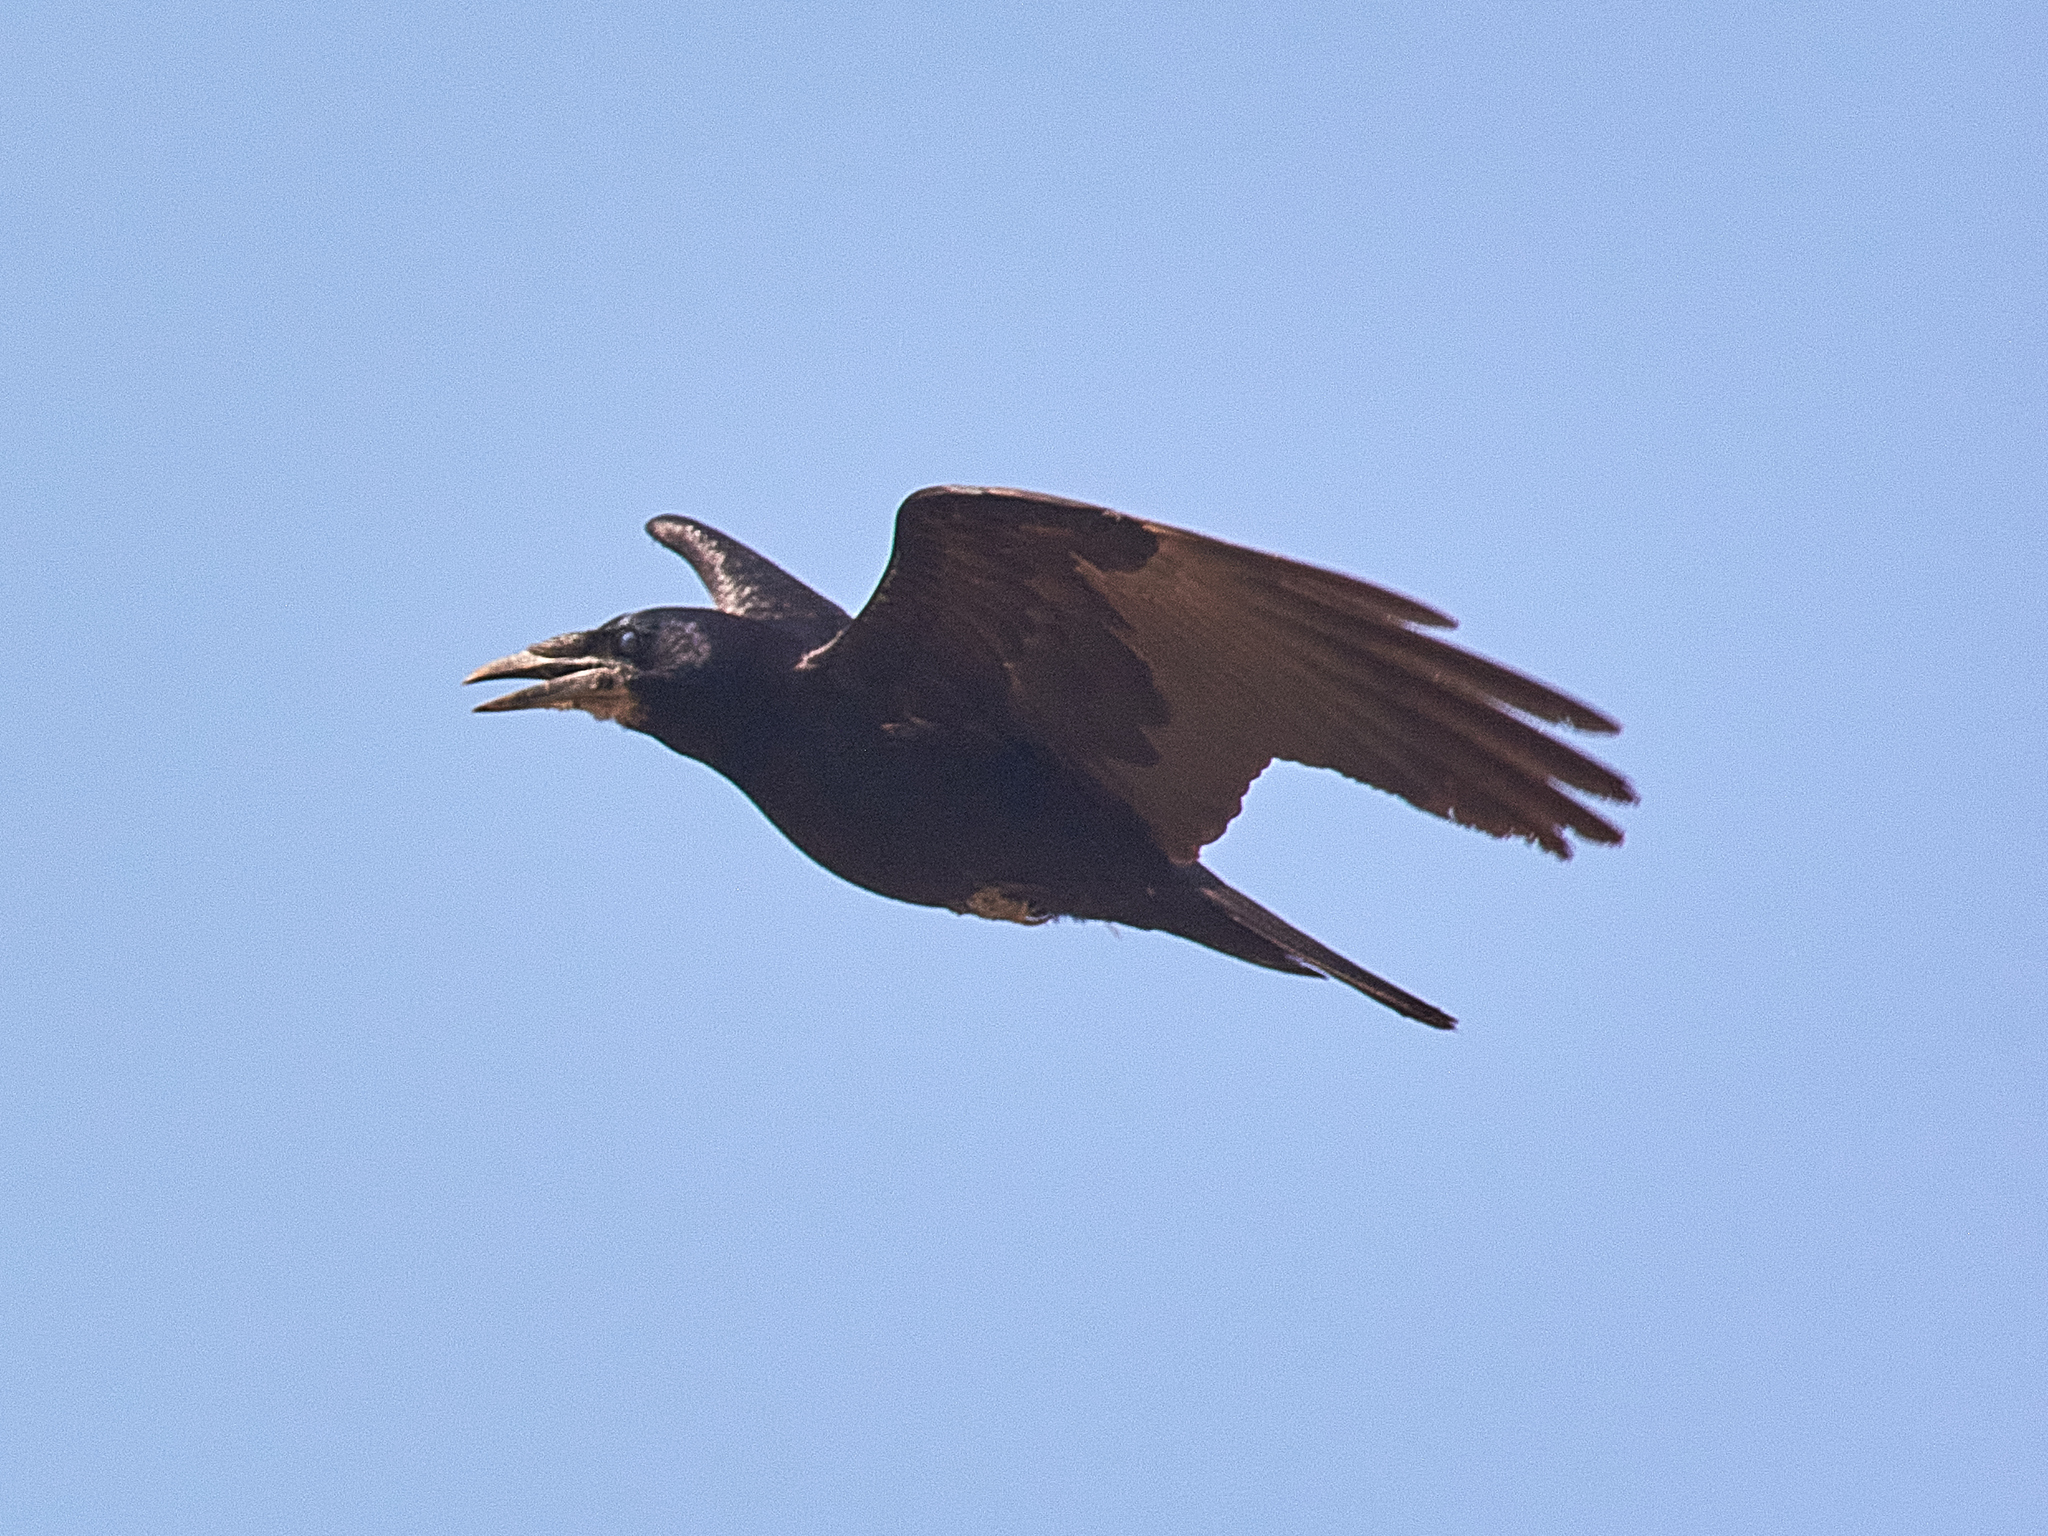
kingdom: Animalia
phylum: Chordata
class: Aves
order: Passeriformes
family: Corvidae
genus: Corvus
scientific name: Corvus frugilegus
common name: Rook
